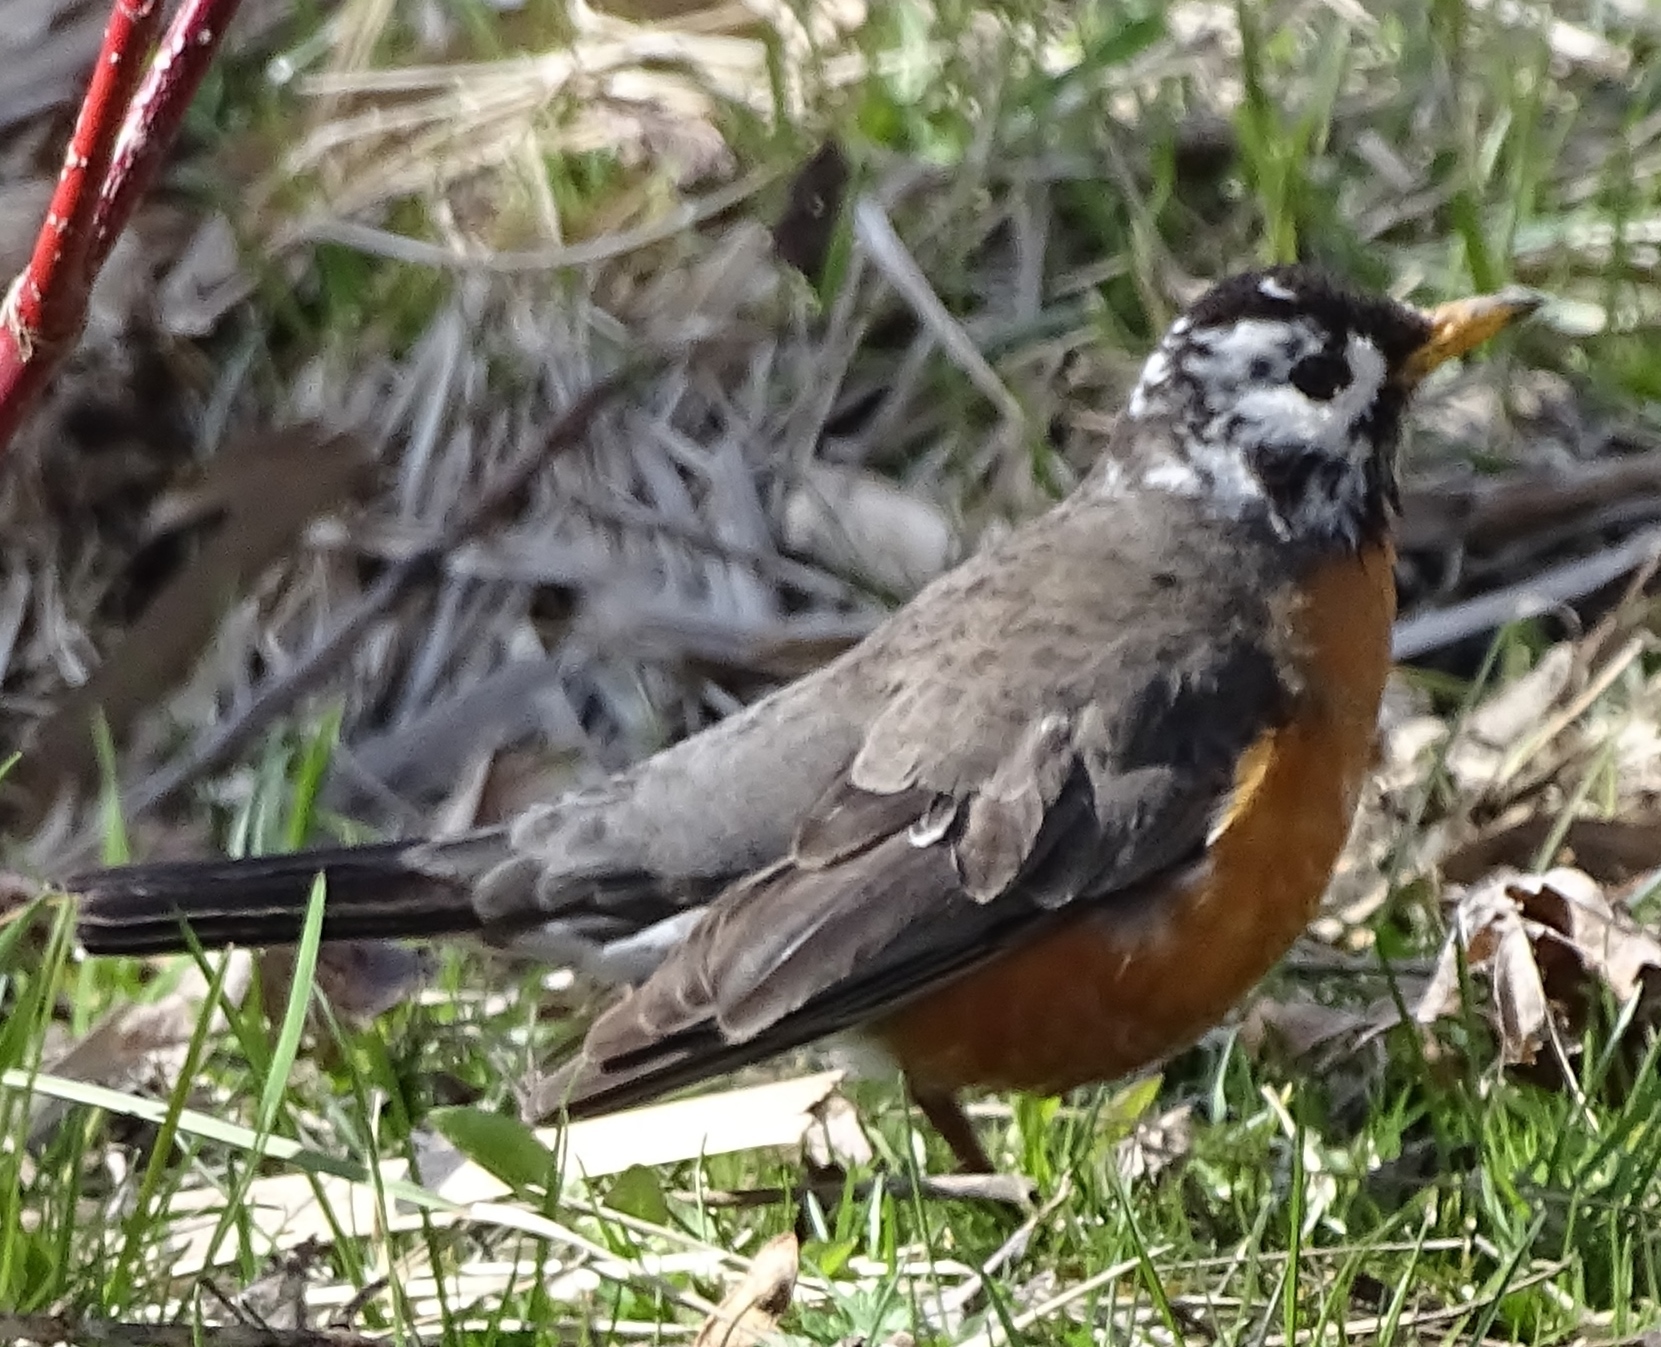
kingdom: Animalia
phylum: Chordata
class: Aves
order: Passeriformes
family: Turdidae
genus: Turdus
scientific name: Turdus migratorius
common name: American robin
